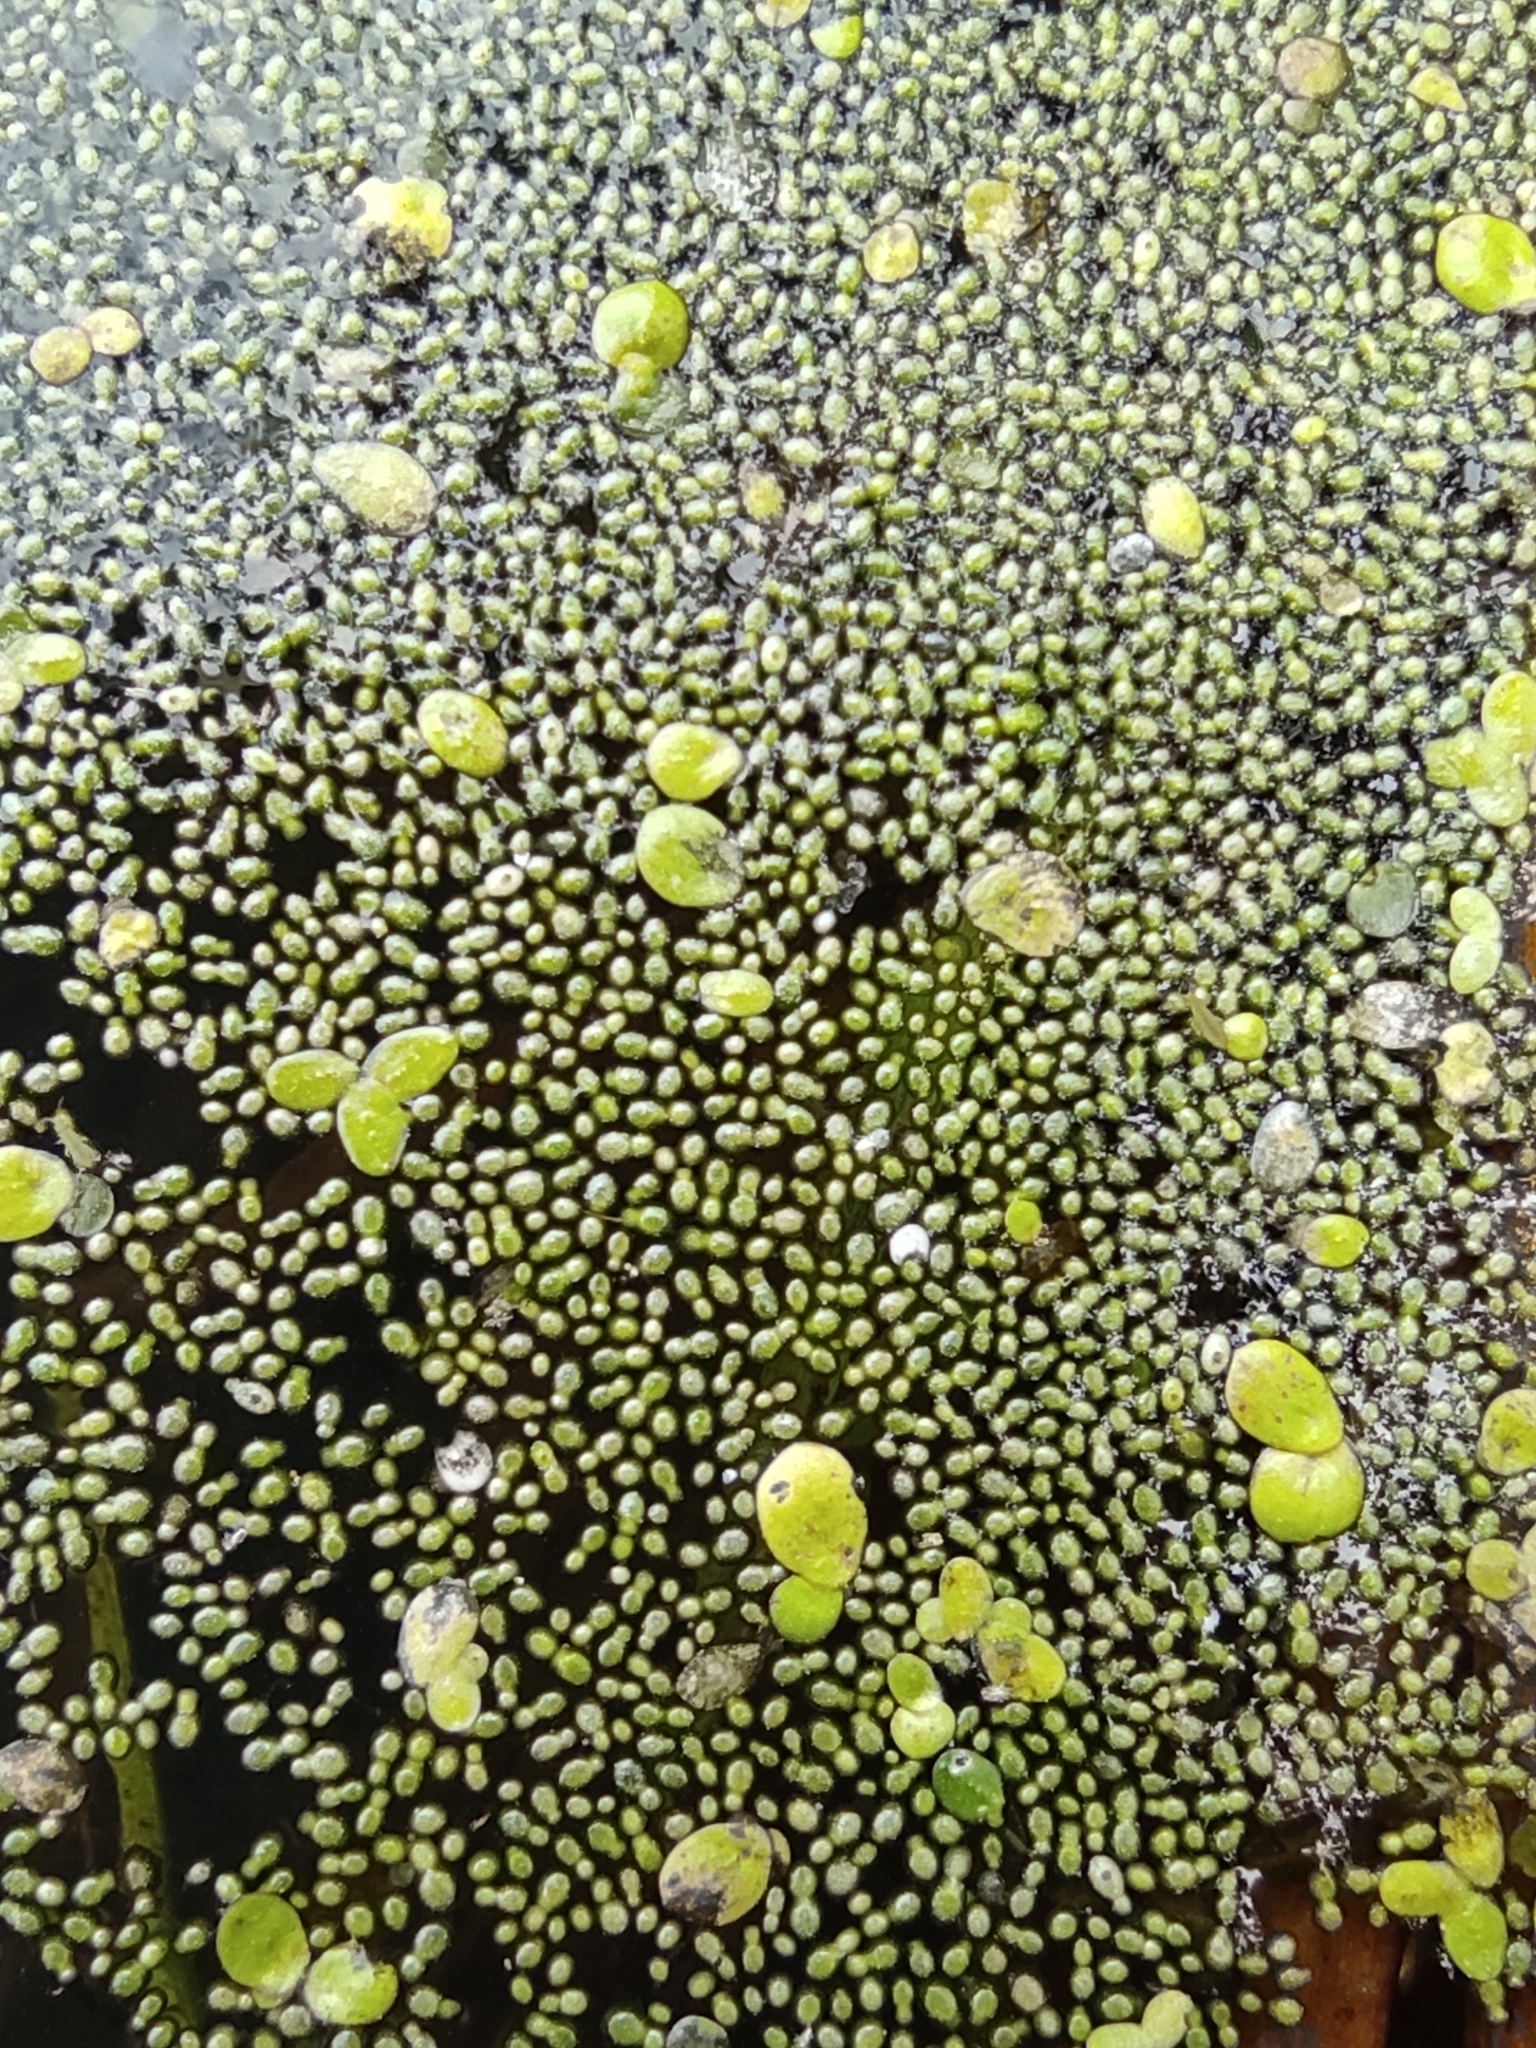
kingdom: Plantae
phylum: Tracheophyta
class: Liliopsida
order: Alismatales
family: Araceae
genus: Wolffia
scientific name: Wolffia arrhiza
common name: Rootless duckweed
